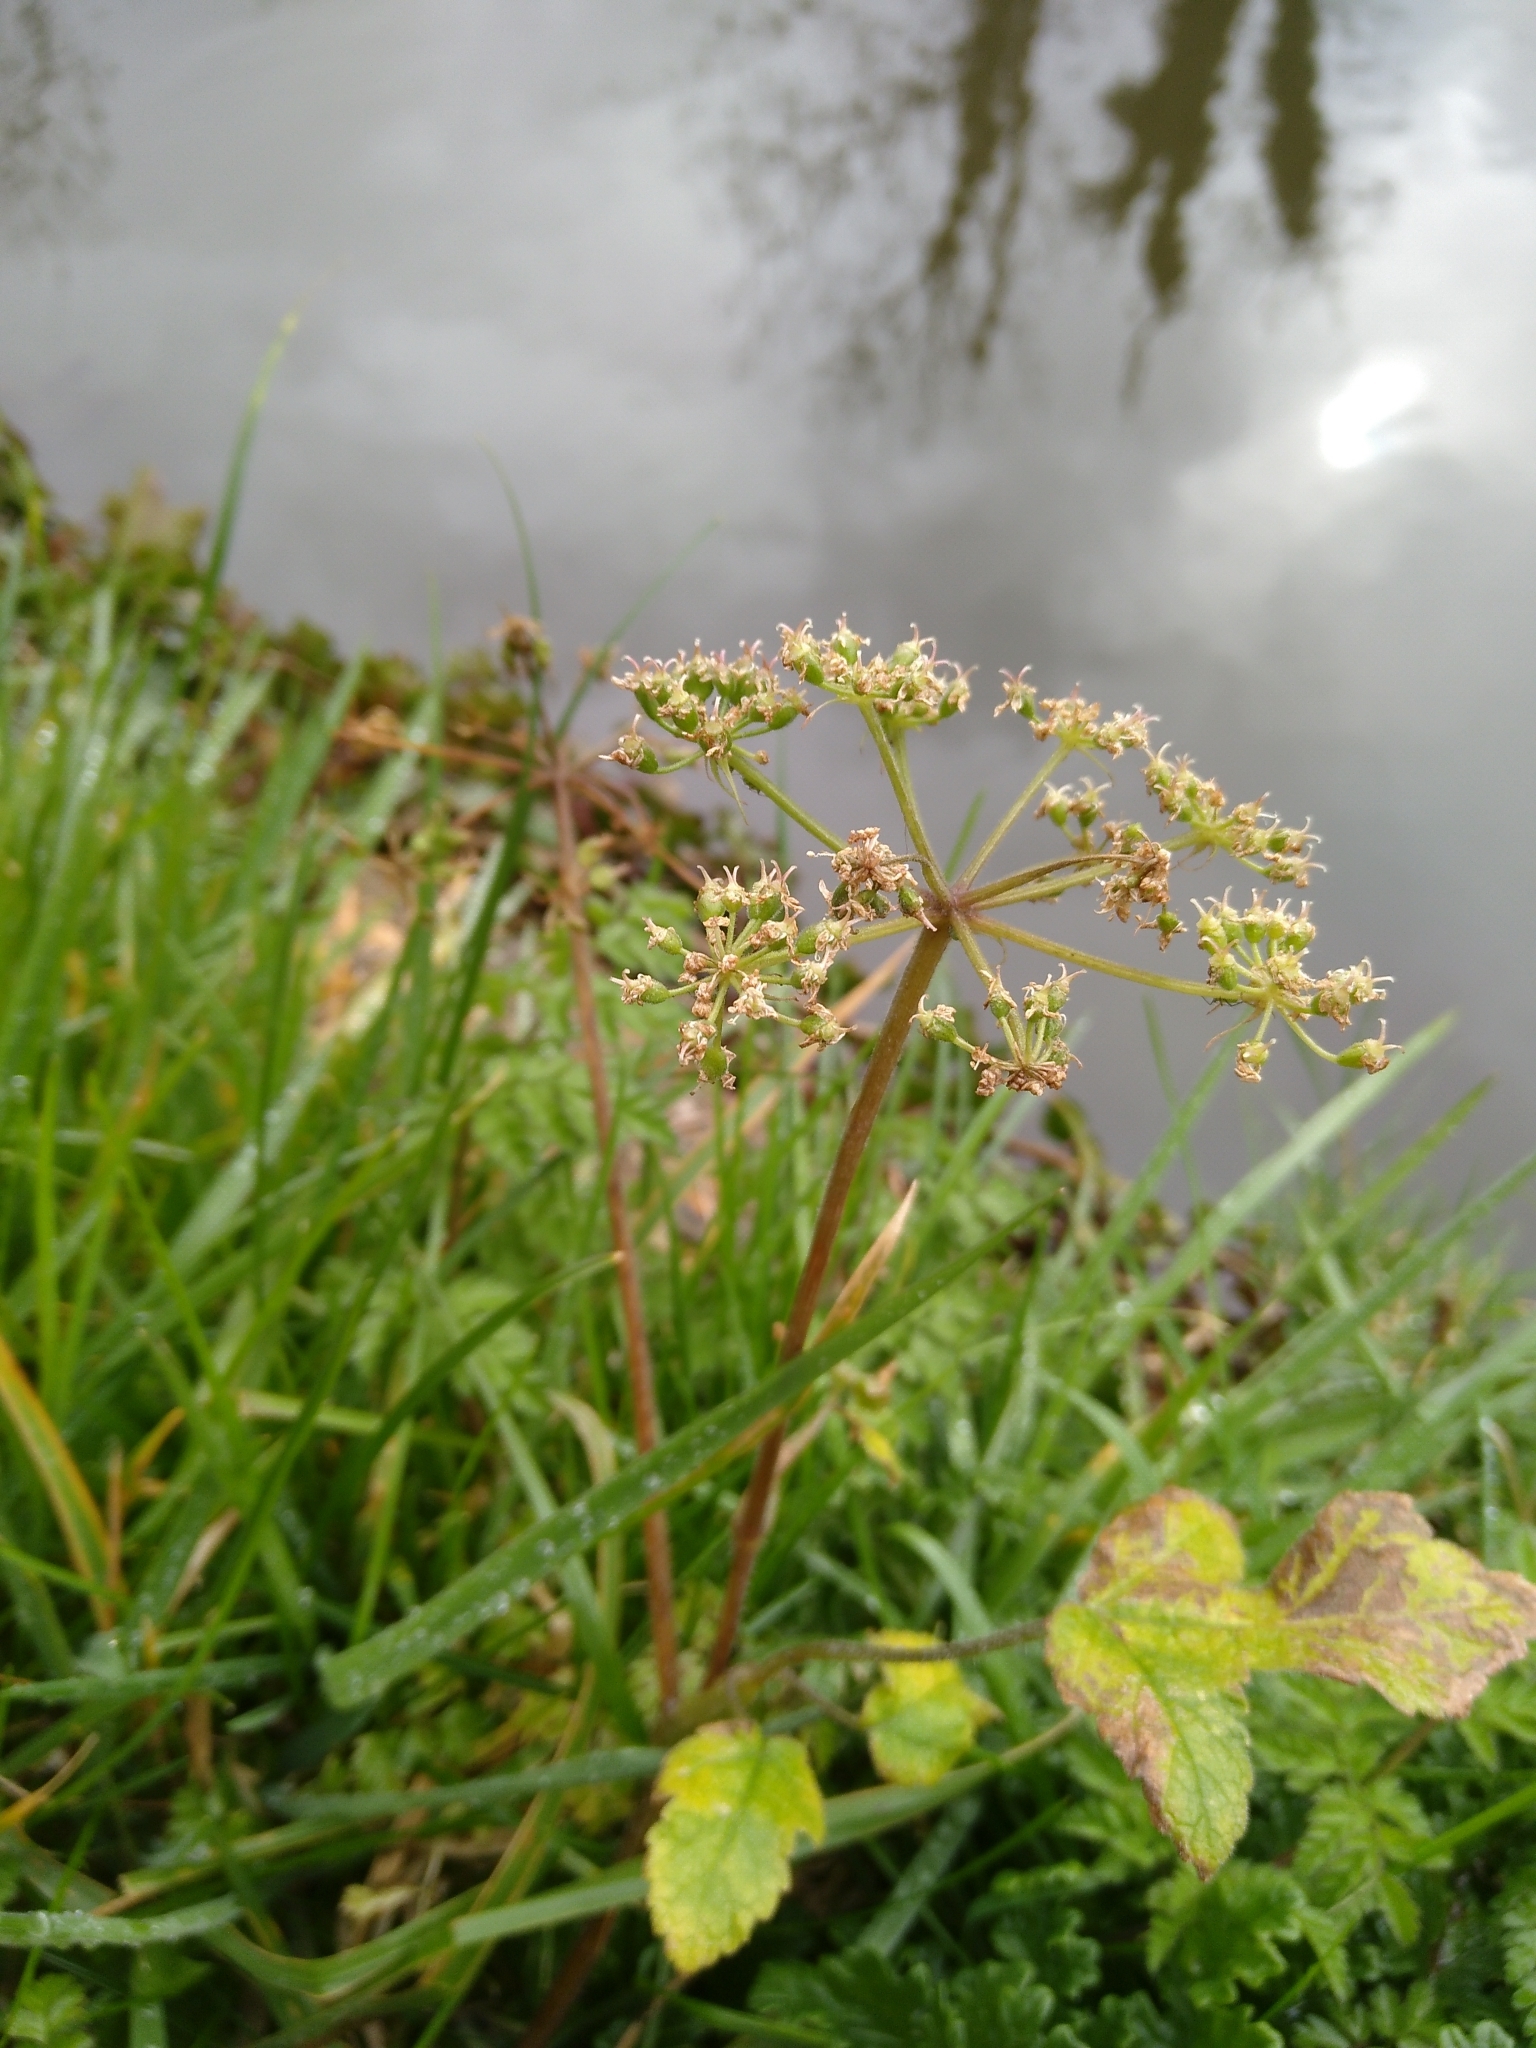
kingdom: Plantae
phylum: Tracheophyta
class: Magnoliopsida
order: Apiales
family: Apiaceae
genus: Heracleum
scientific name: Heracleum sphondylium
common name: Hogweed
